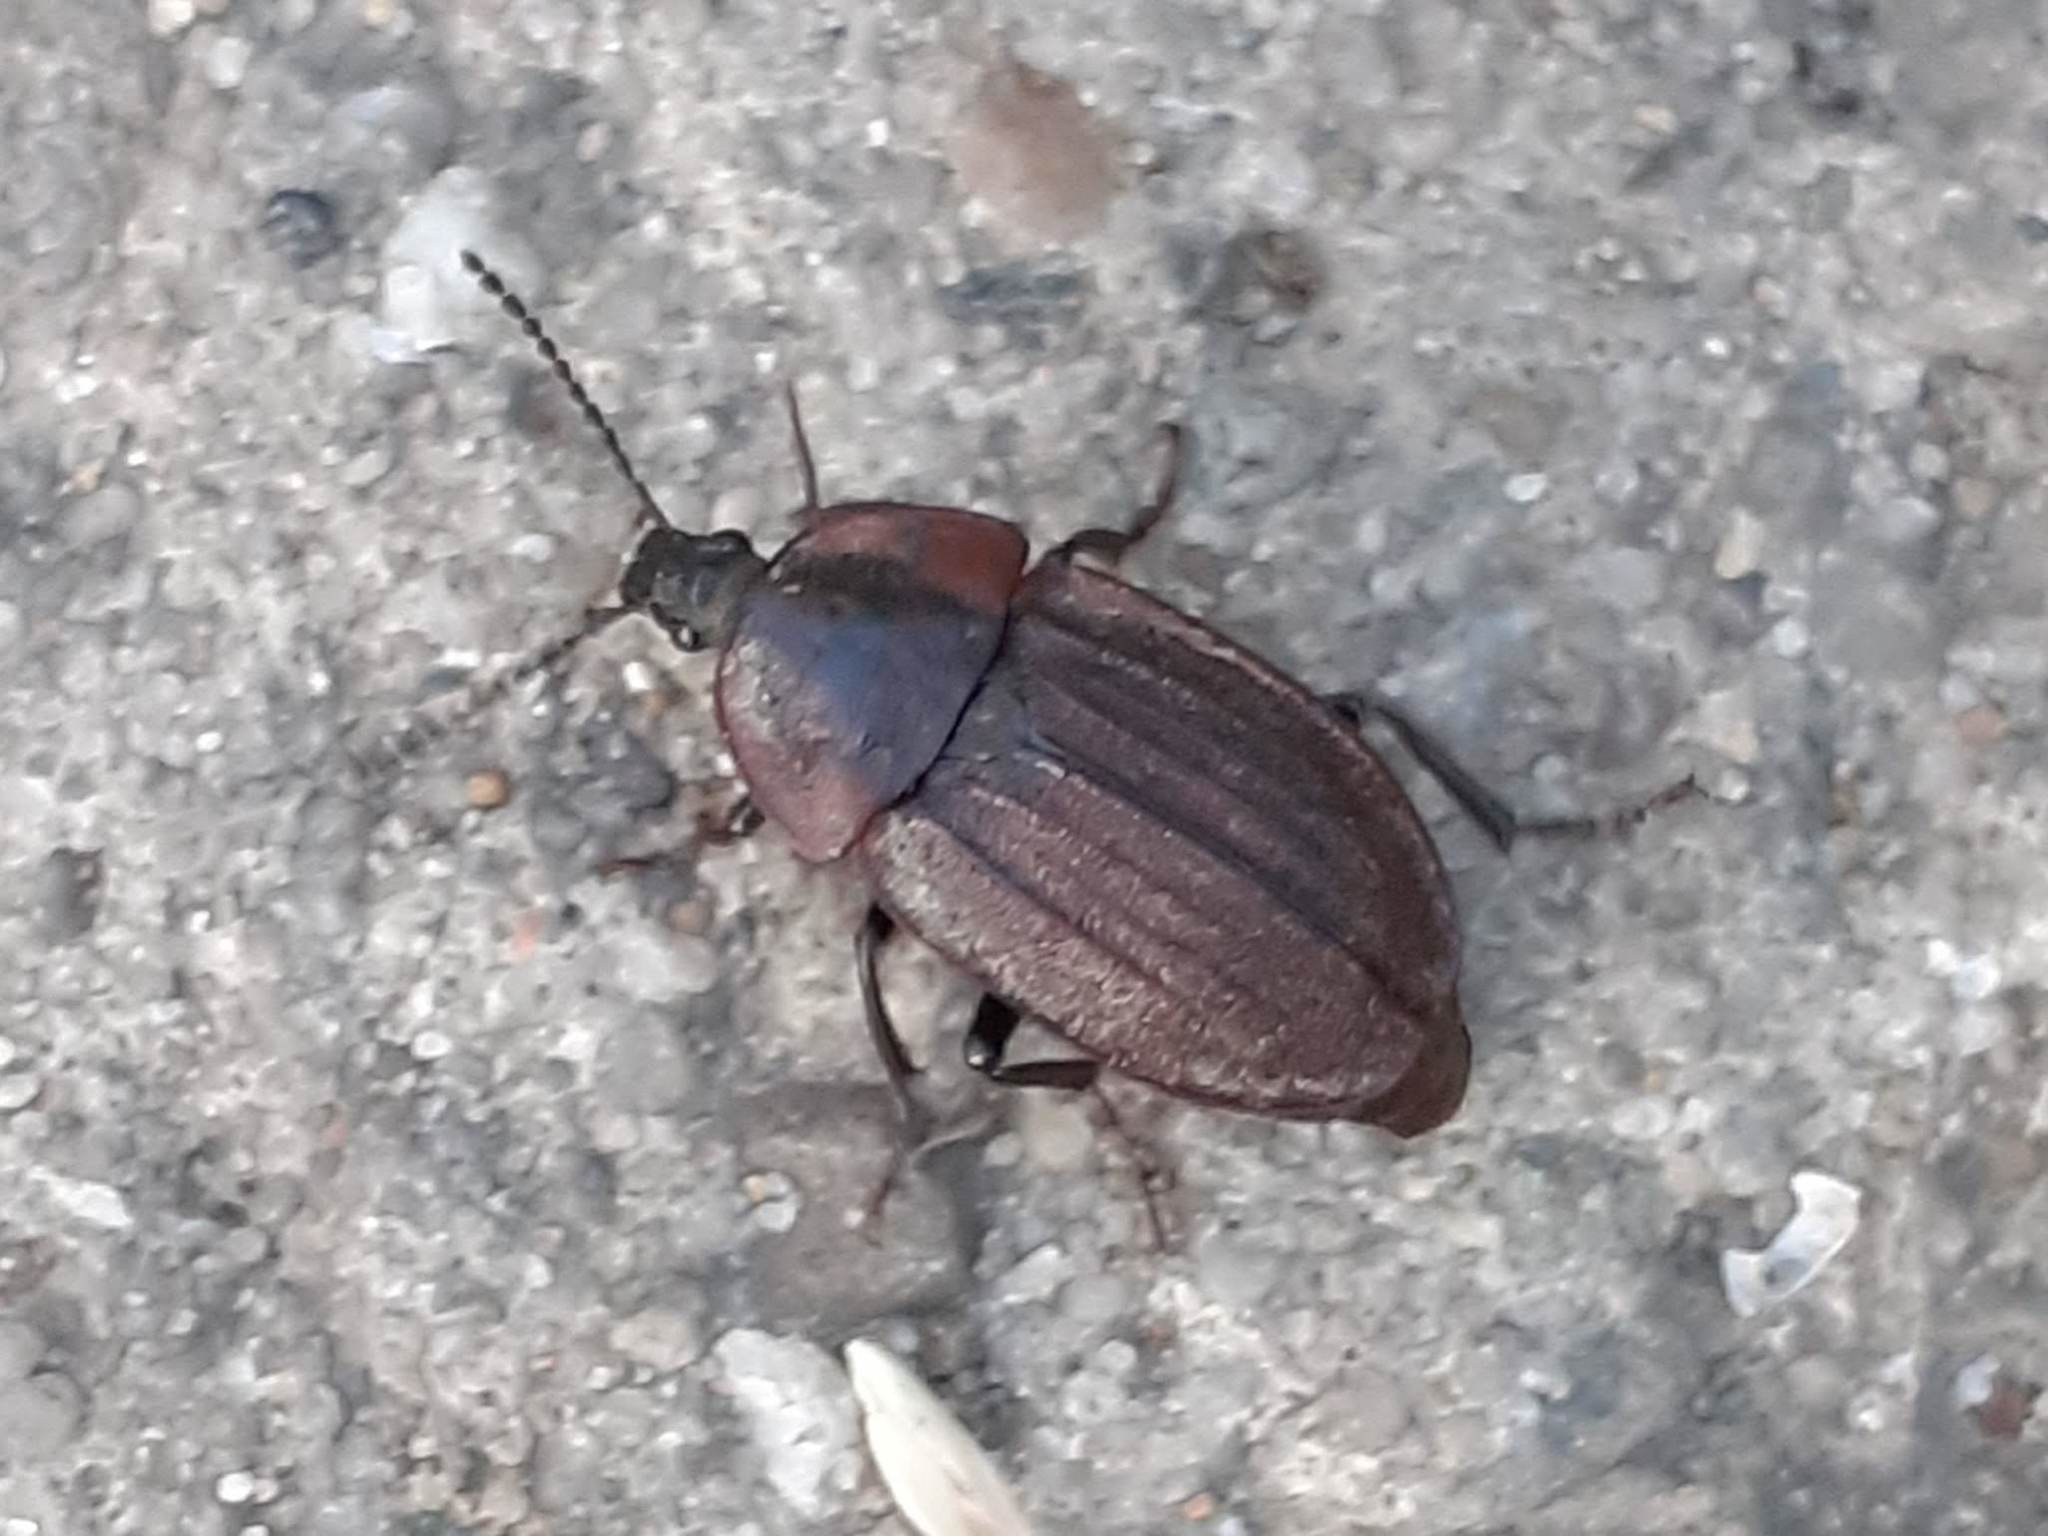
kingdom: Animalia
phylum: Arthropoda
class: Insecta
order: Coleoptera
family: Staphylinidae
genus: Silpha
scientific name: Silpha atrata
